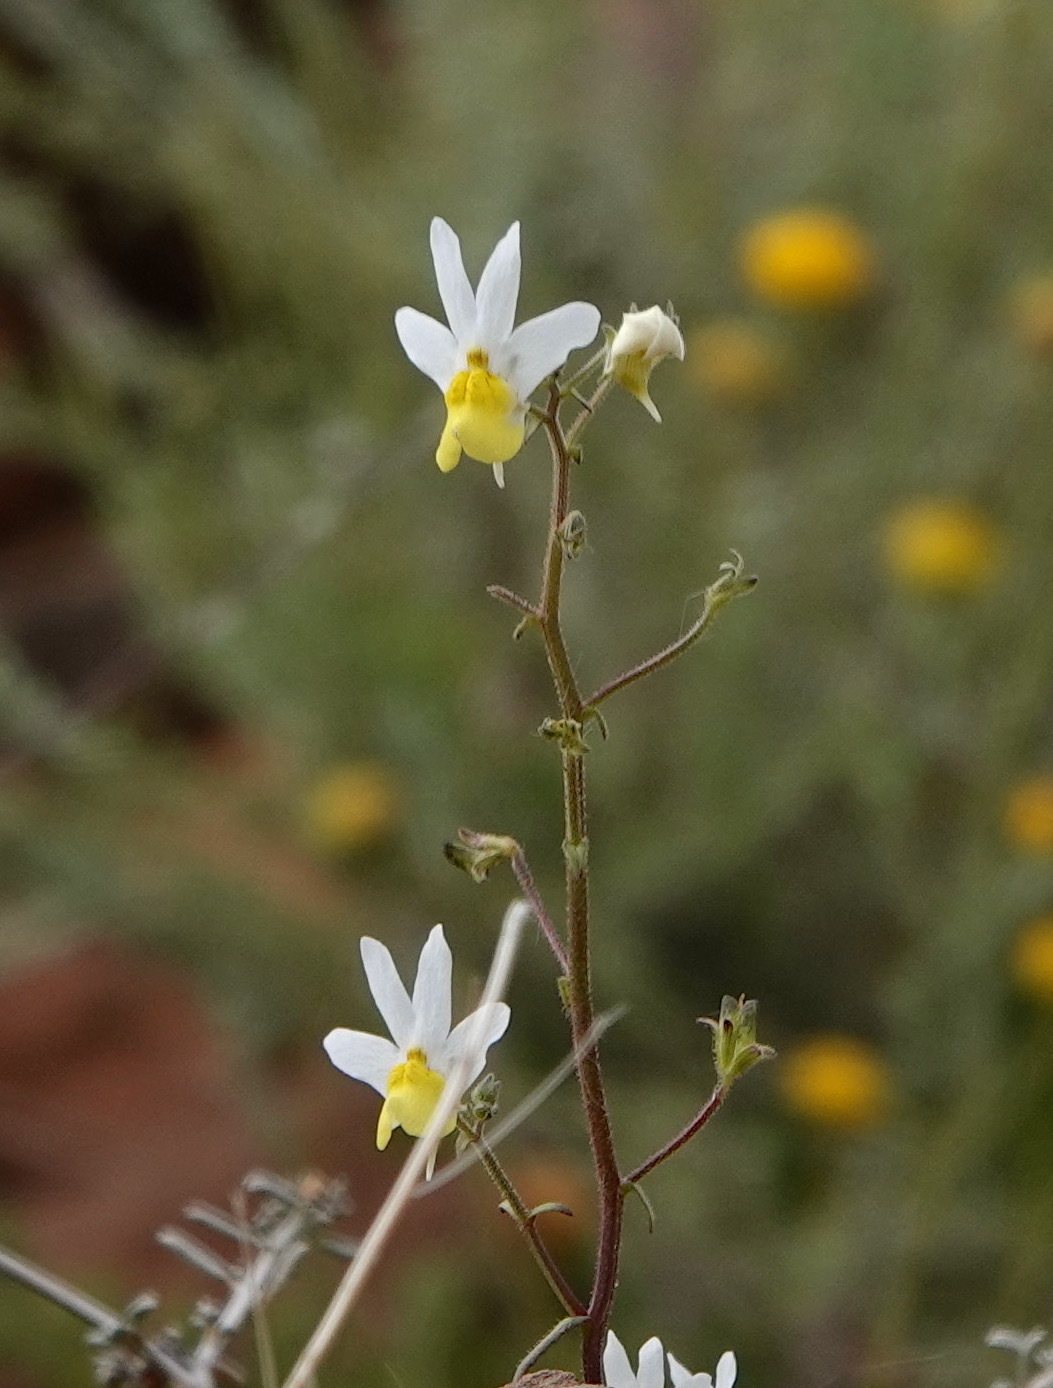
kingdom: Plantae
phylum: Tracheophyta
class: Magnoliopsida
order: Lamiales
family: Scrophulariaceae
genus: Nemesia
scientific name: Nemesia anisocarpa
